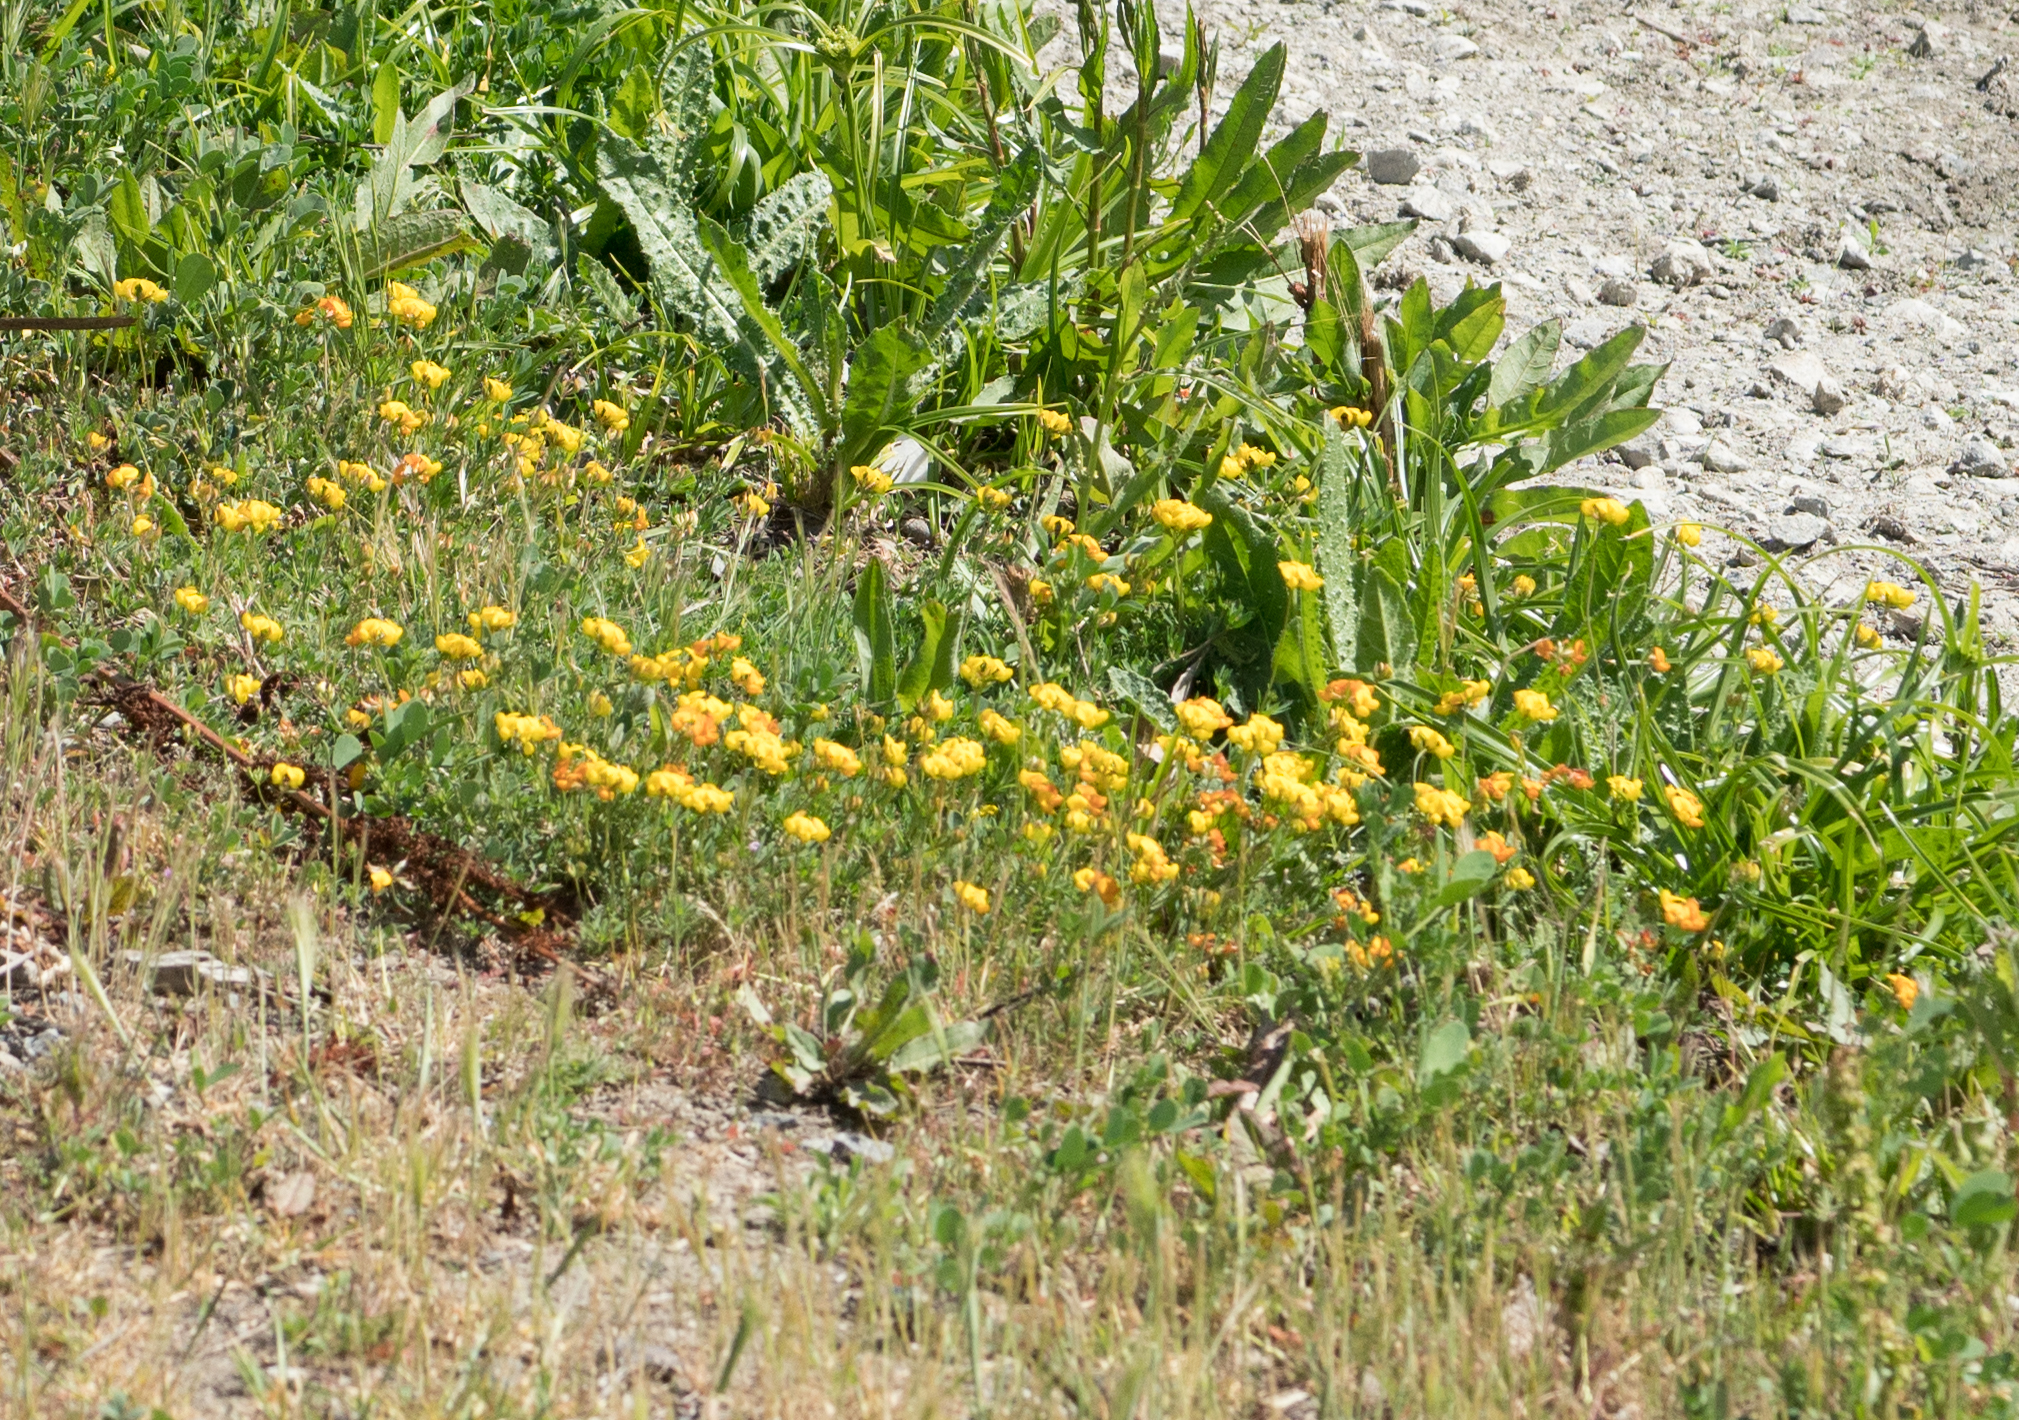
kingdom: Plantae
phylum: Tracheophyta
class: Magnoliopsida
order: Fabales
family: Fabaceae
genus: Lotus
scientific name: Lotus corniculatus
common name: Common bird's-foot-trefoil
